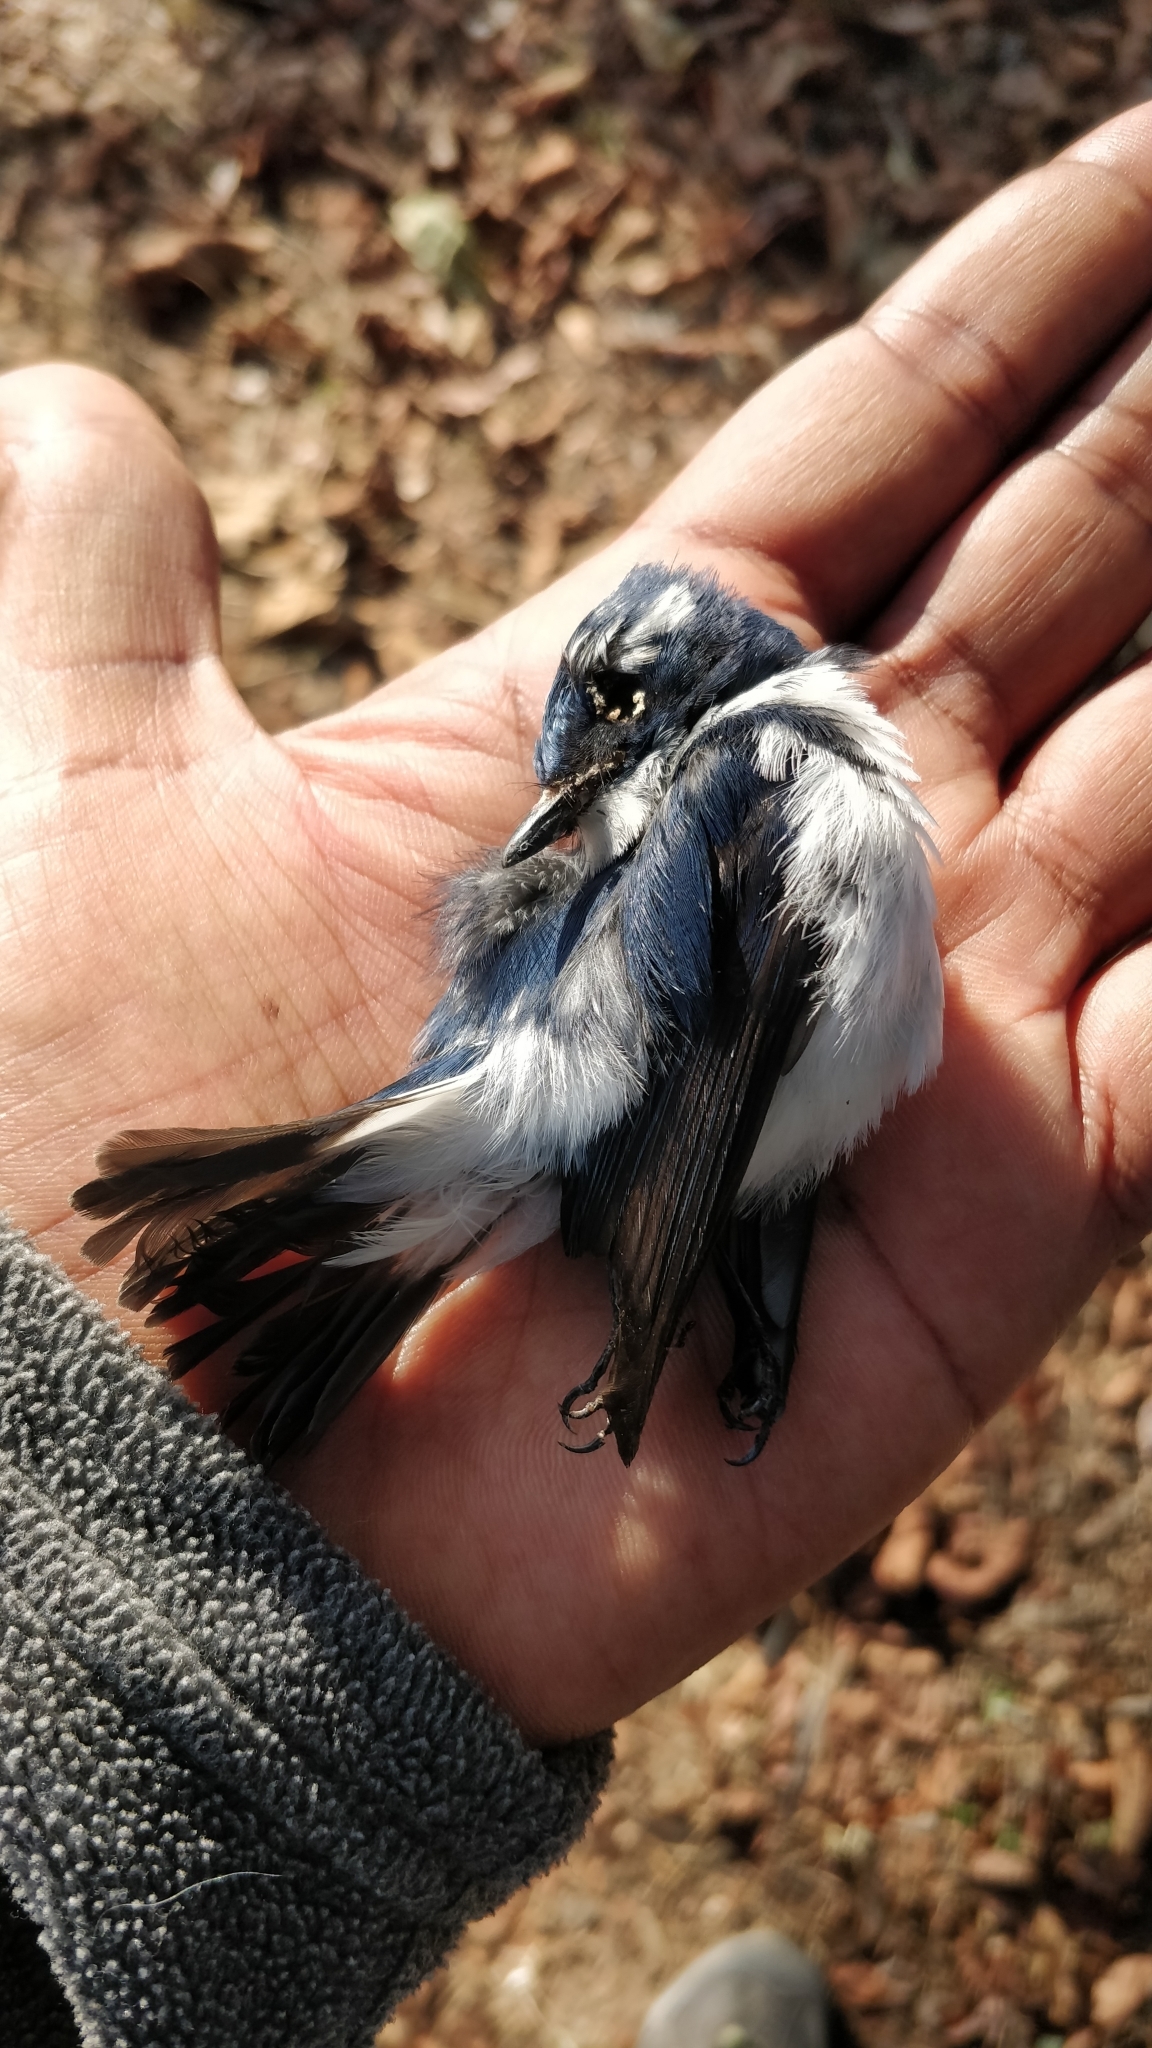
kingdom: Animalia
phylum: Chordata
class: Aves
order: Passeriformes
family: Muscicapidae
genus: Ficedula
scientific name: Ficedula superciliaris
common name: Ultramarine flycatcher
